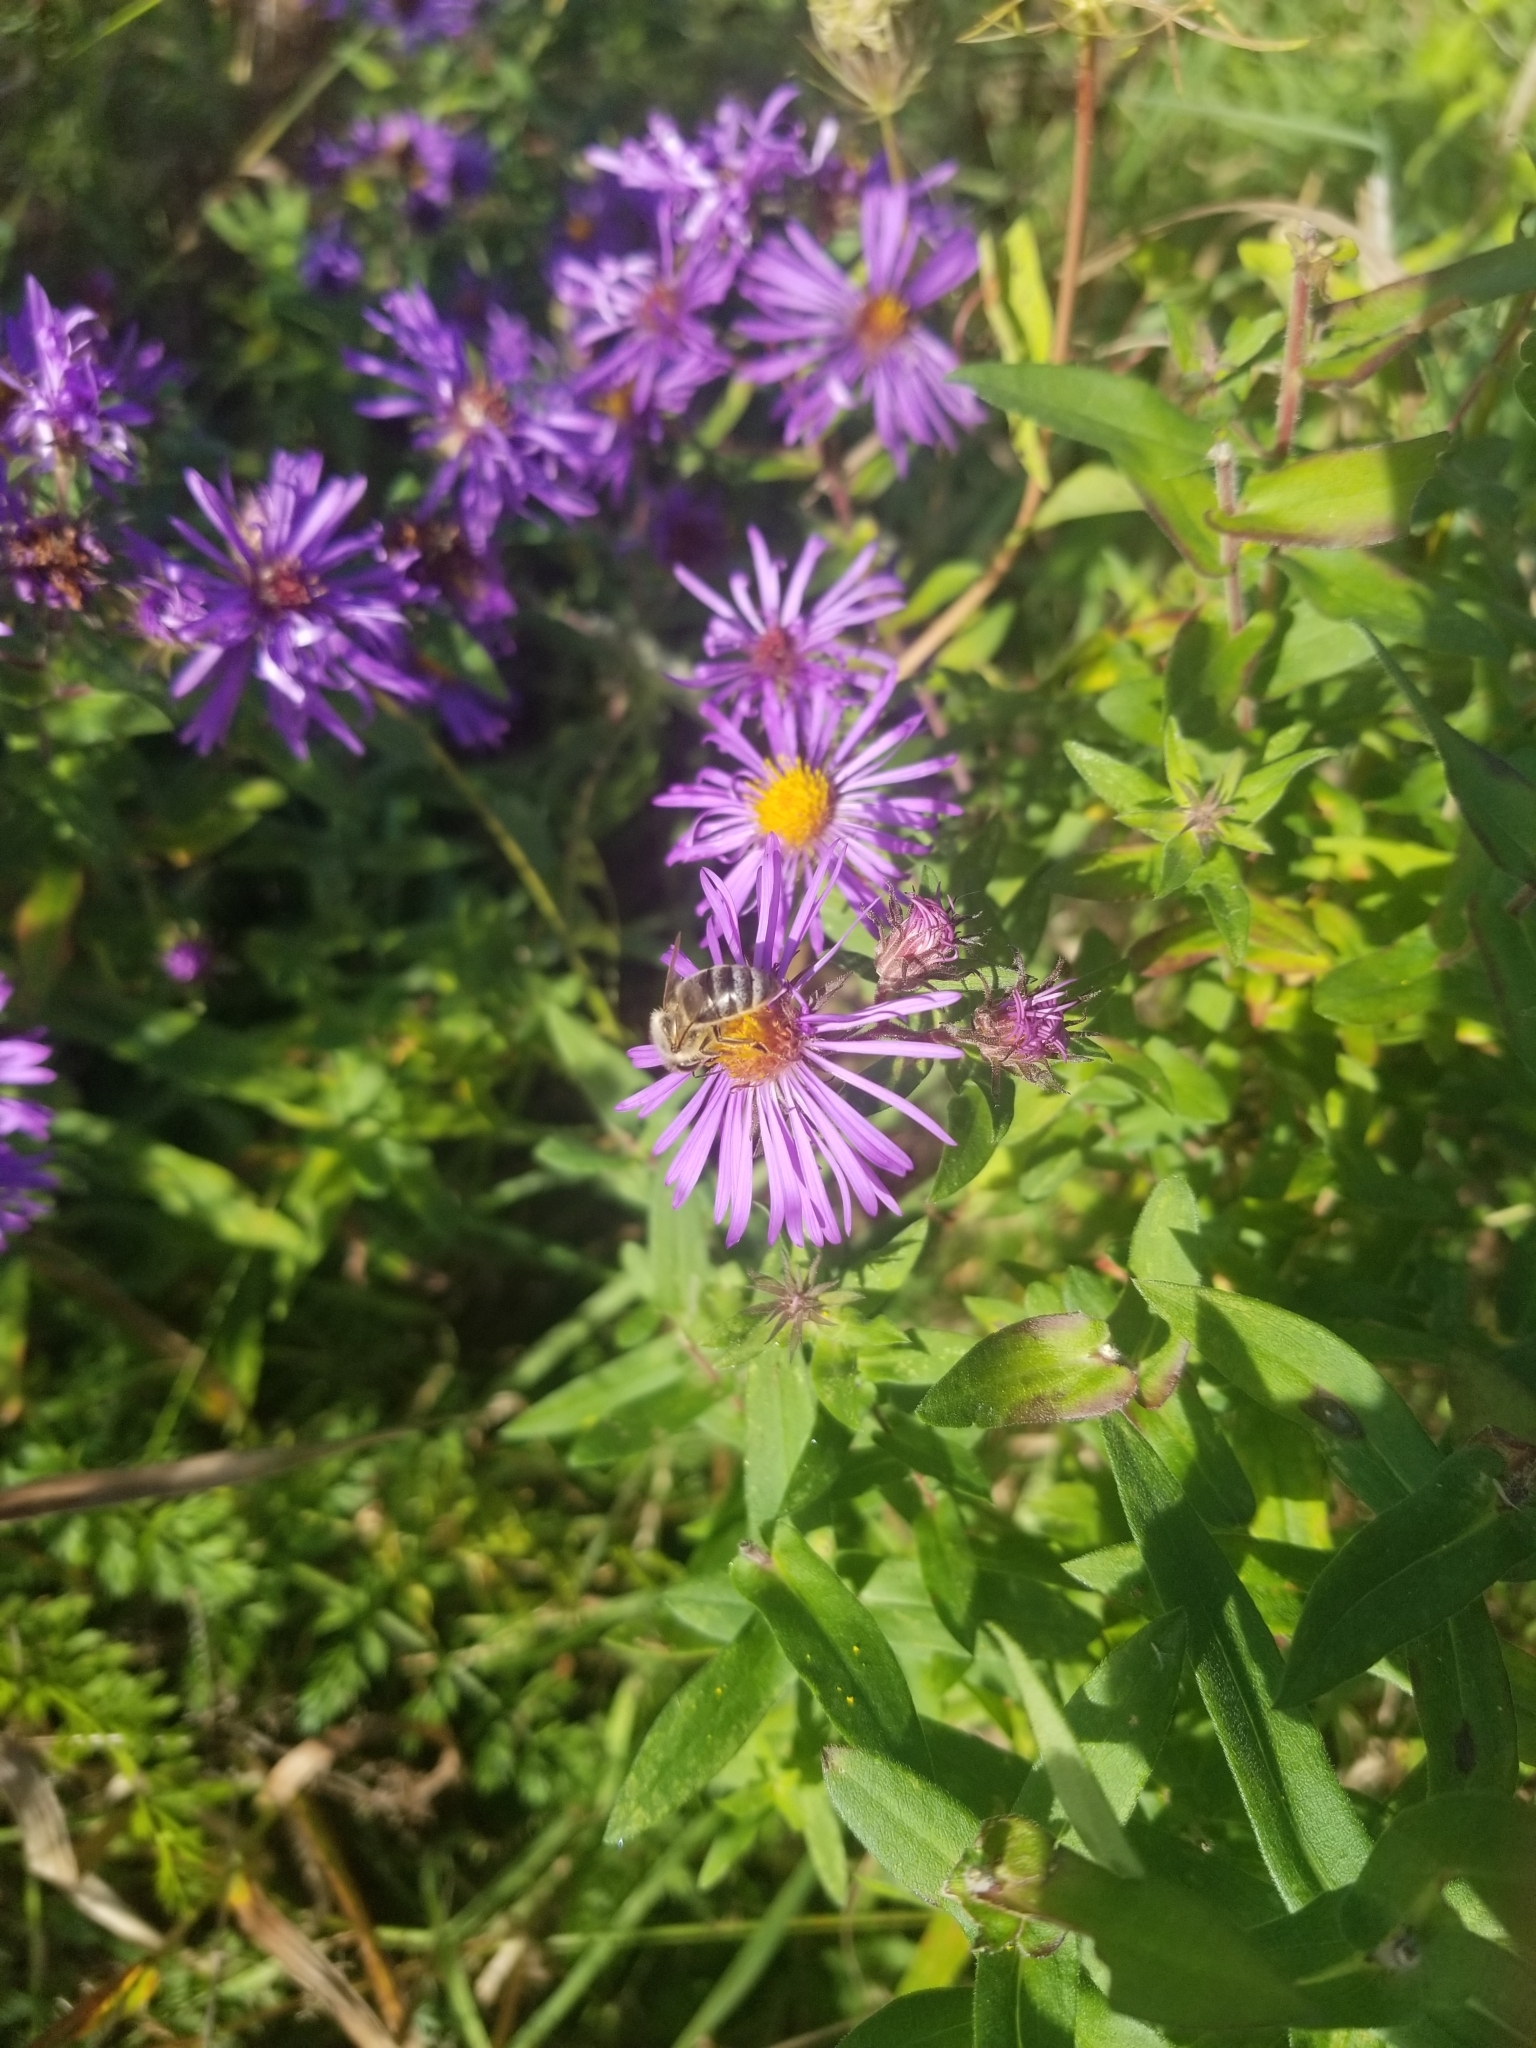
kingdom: Animalia
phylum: Arthropoda
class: Insecta
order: Hymenoptera
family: Apidae
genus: Apis
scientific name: Apis mellifera
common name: Honey bee
